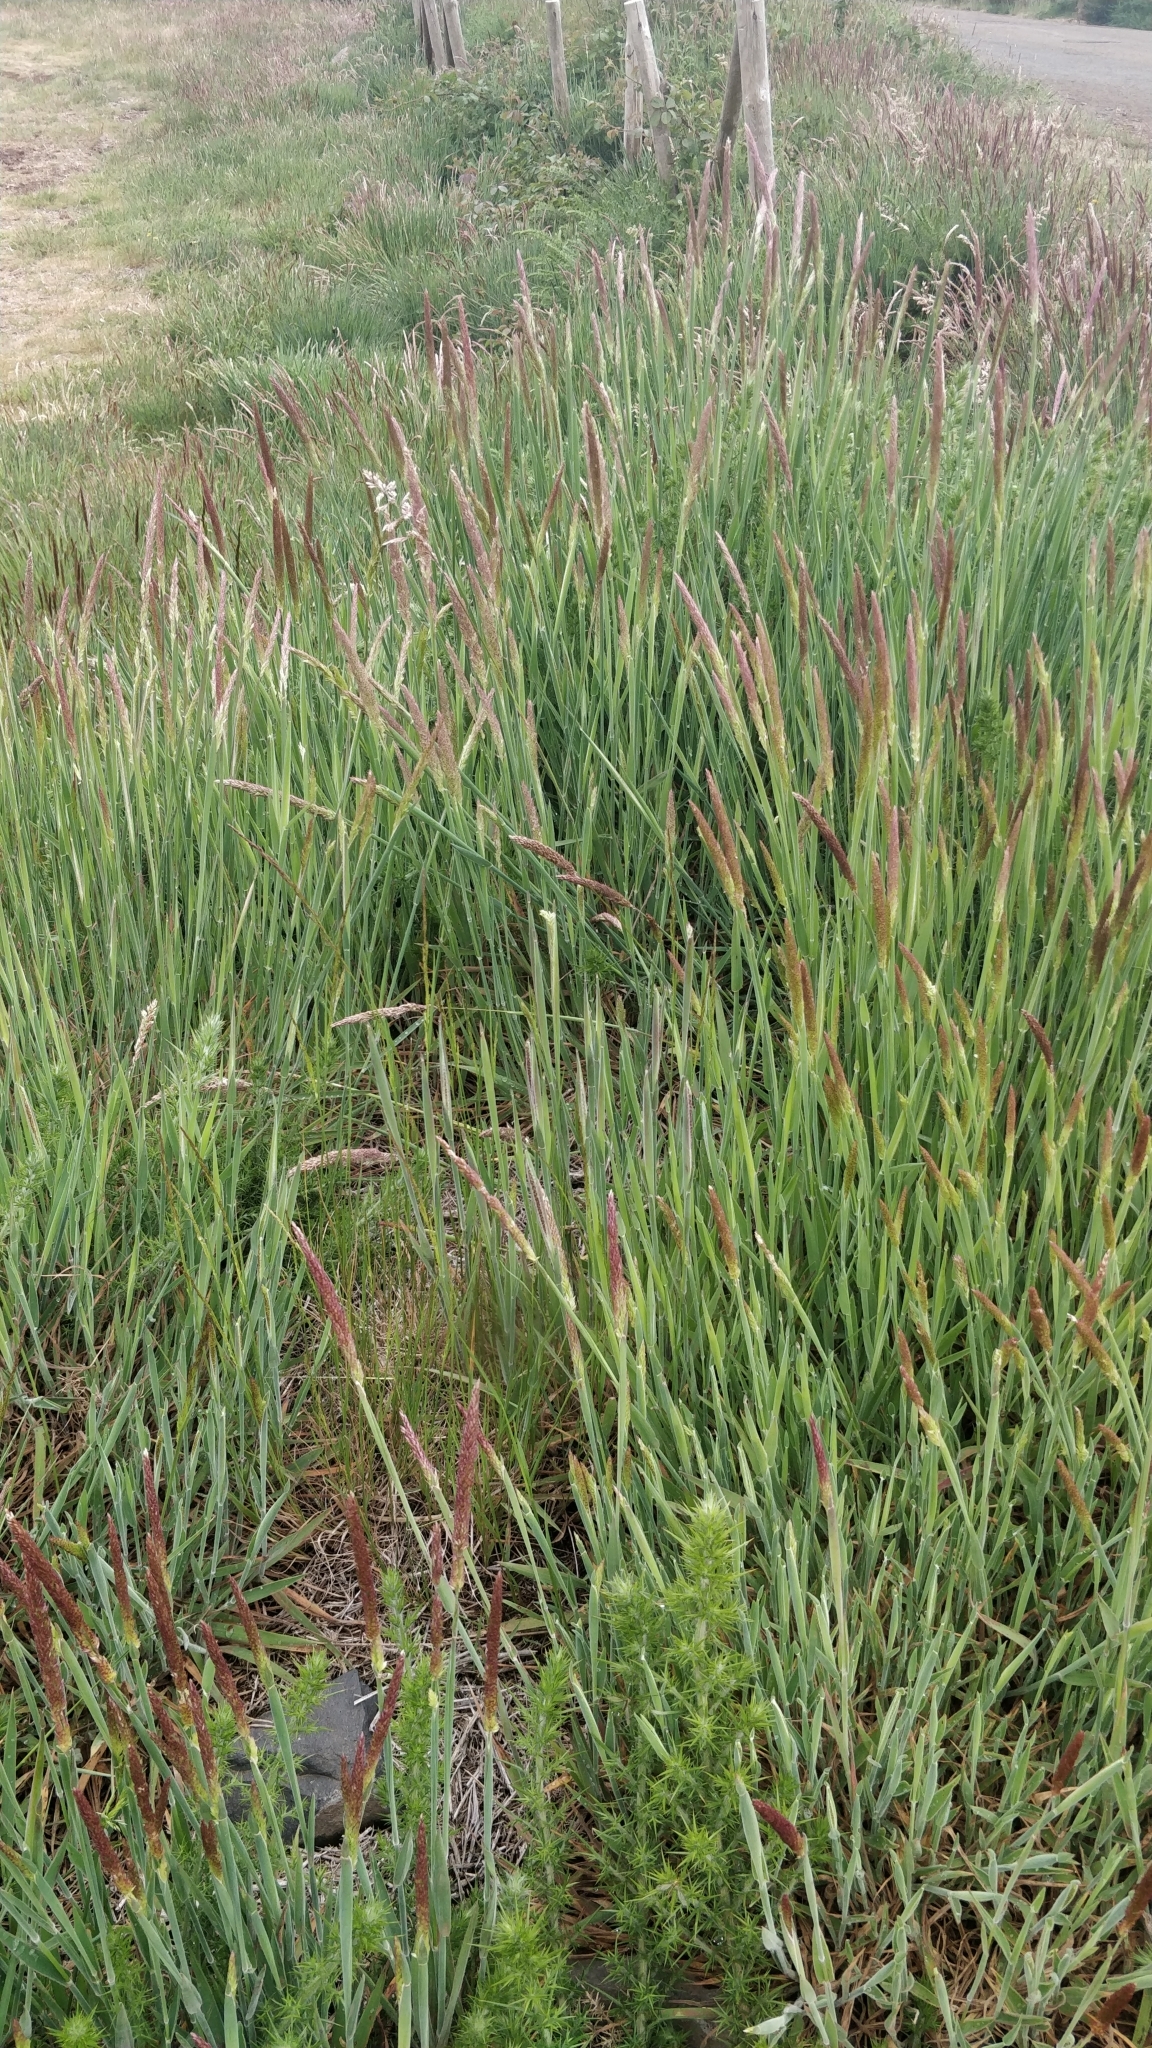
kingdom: Plantae
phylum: Tracheophyta
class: Liliopsida
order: Poales
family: Poaceae
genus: Holcus
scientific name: Holcus lanatus
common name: Yorkshire-fog
